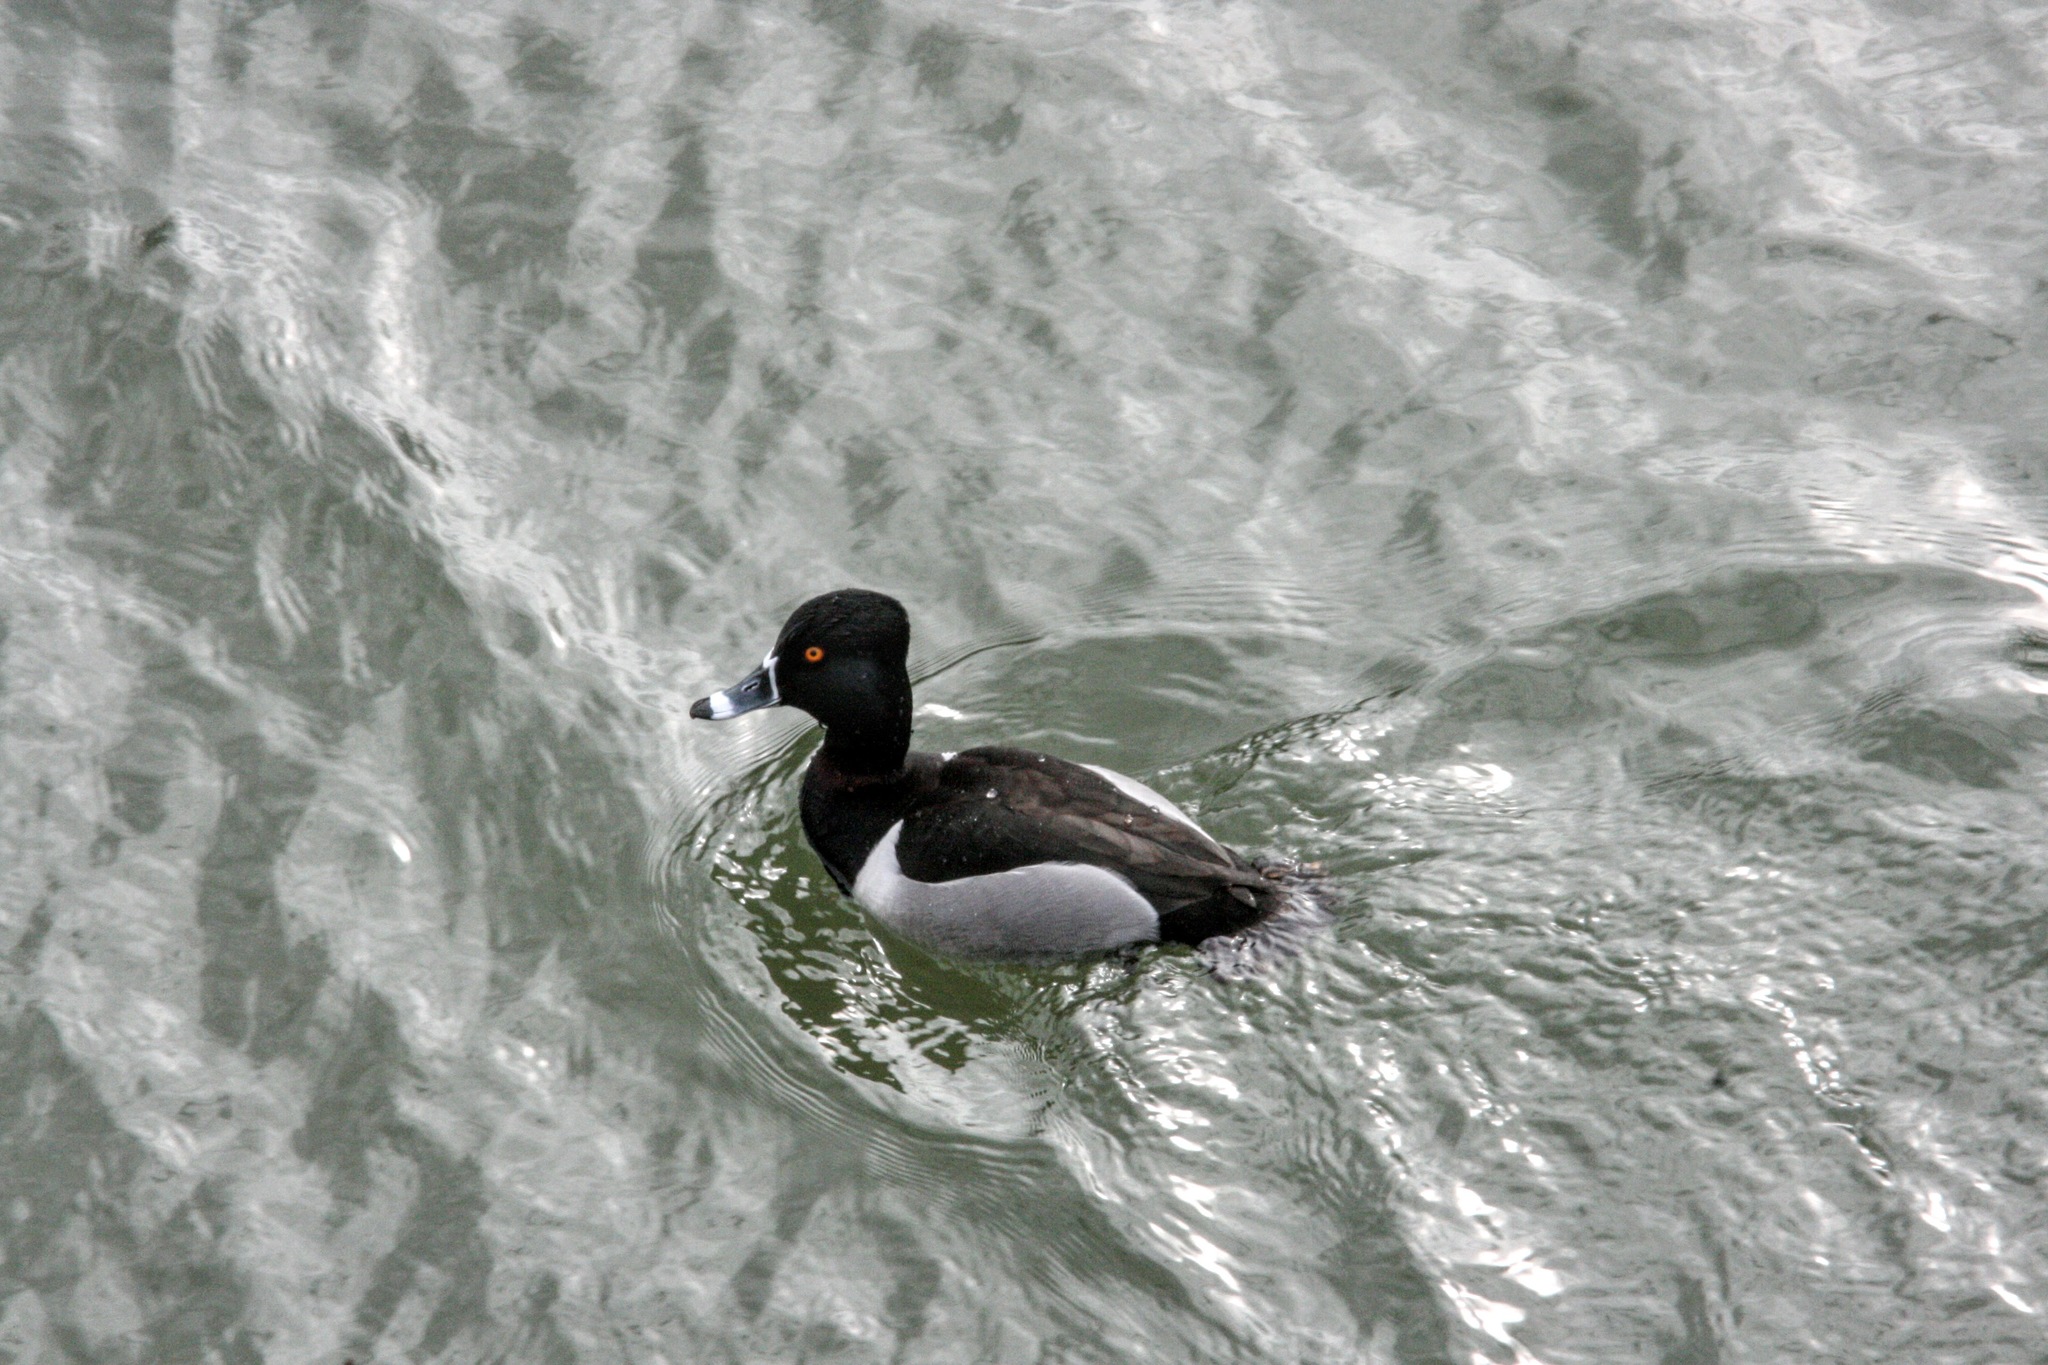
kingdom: Animalia
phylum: Chordata
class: Aves
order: Anseriformes
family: Anatidae
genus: Aythya
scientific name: Aythya collaris
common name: Ring-necked duck
